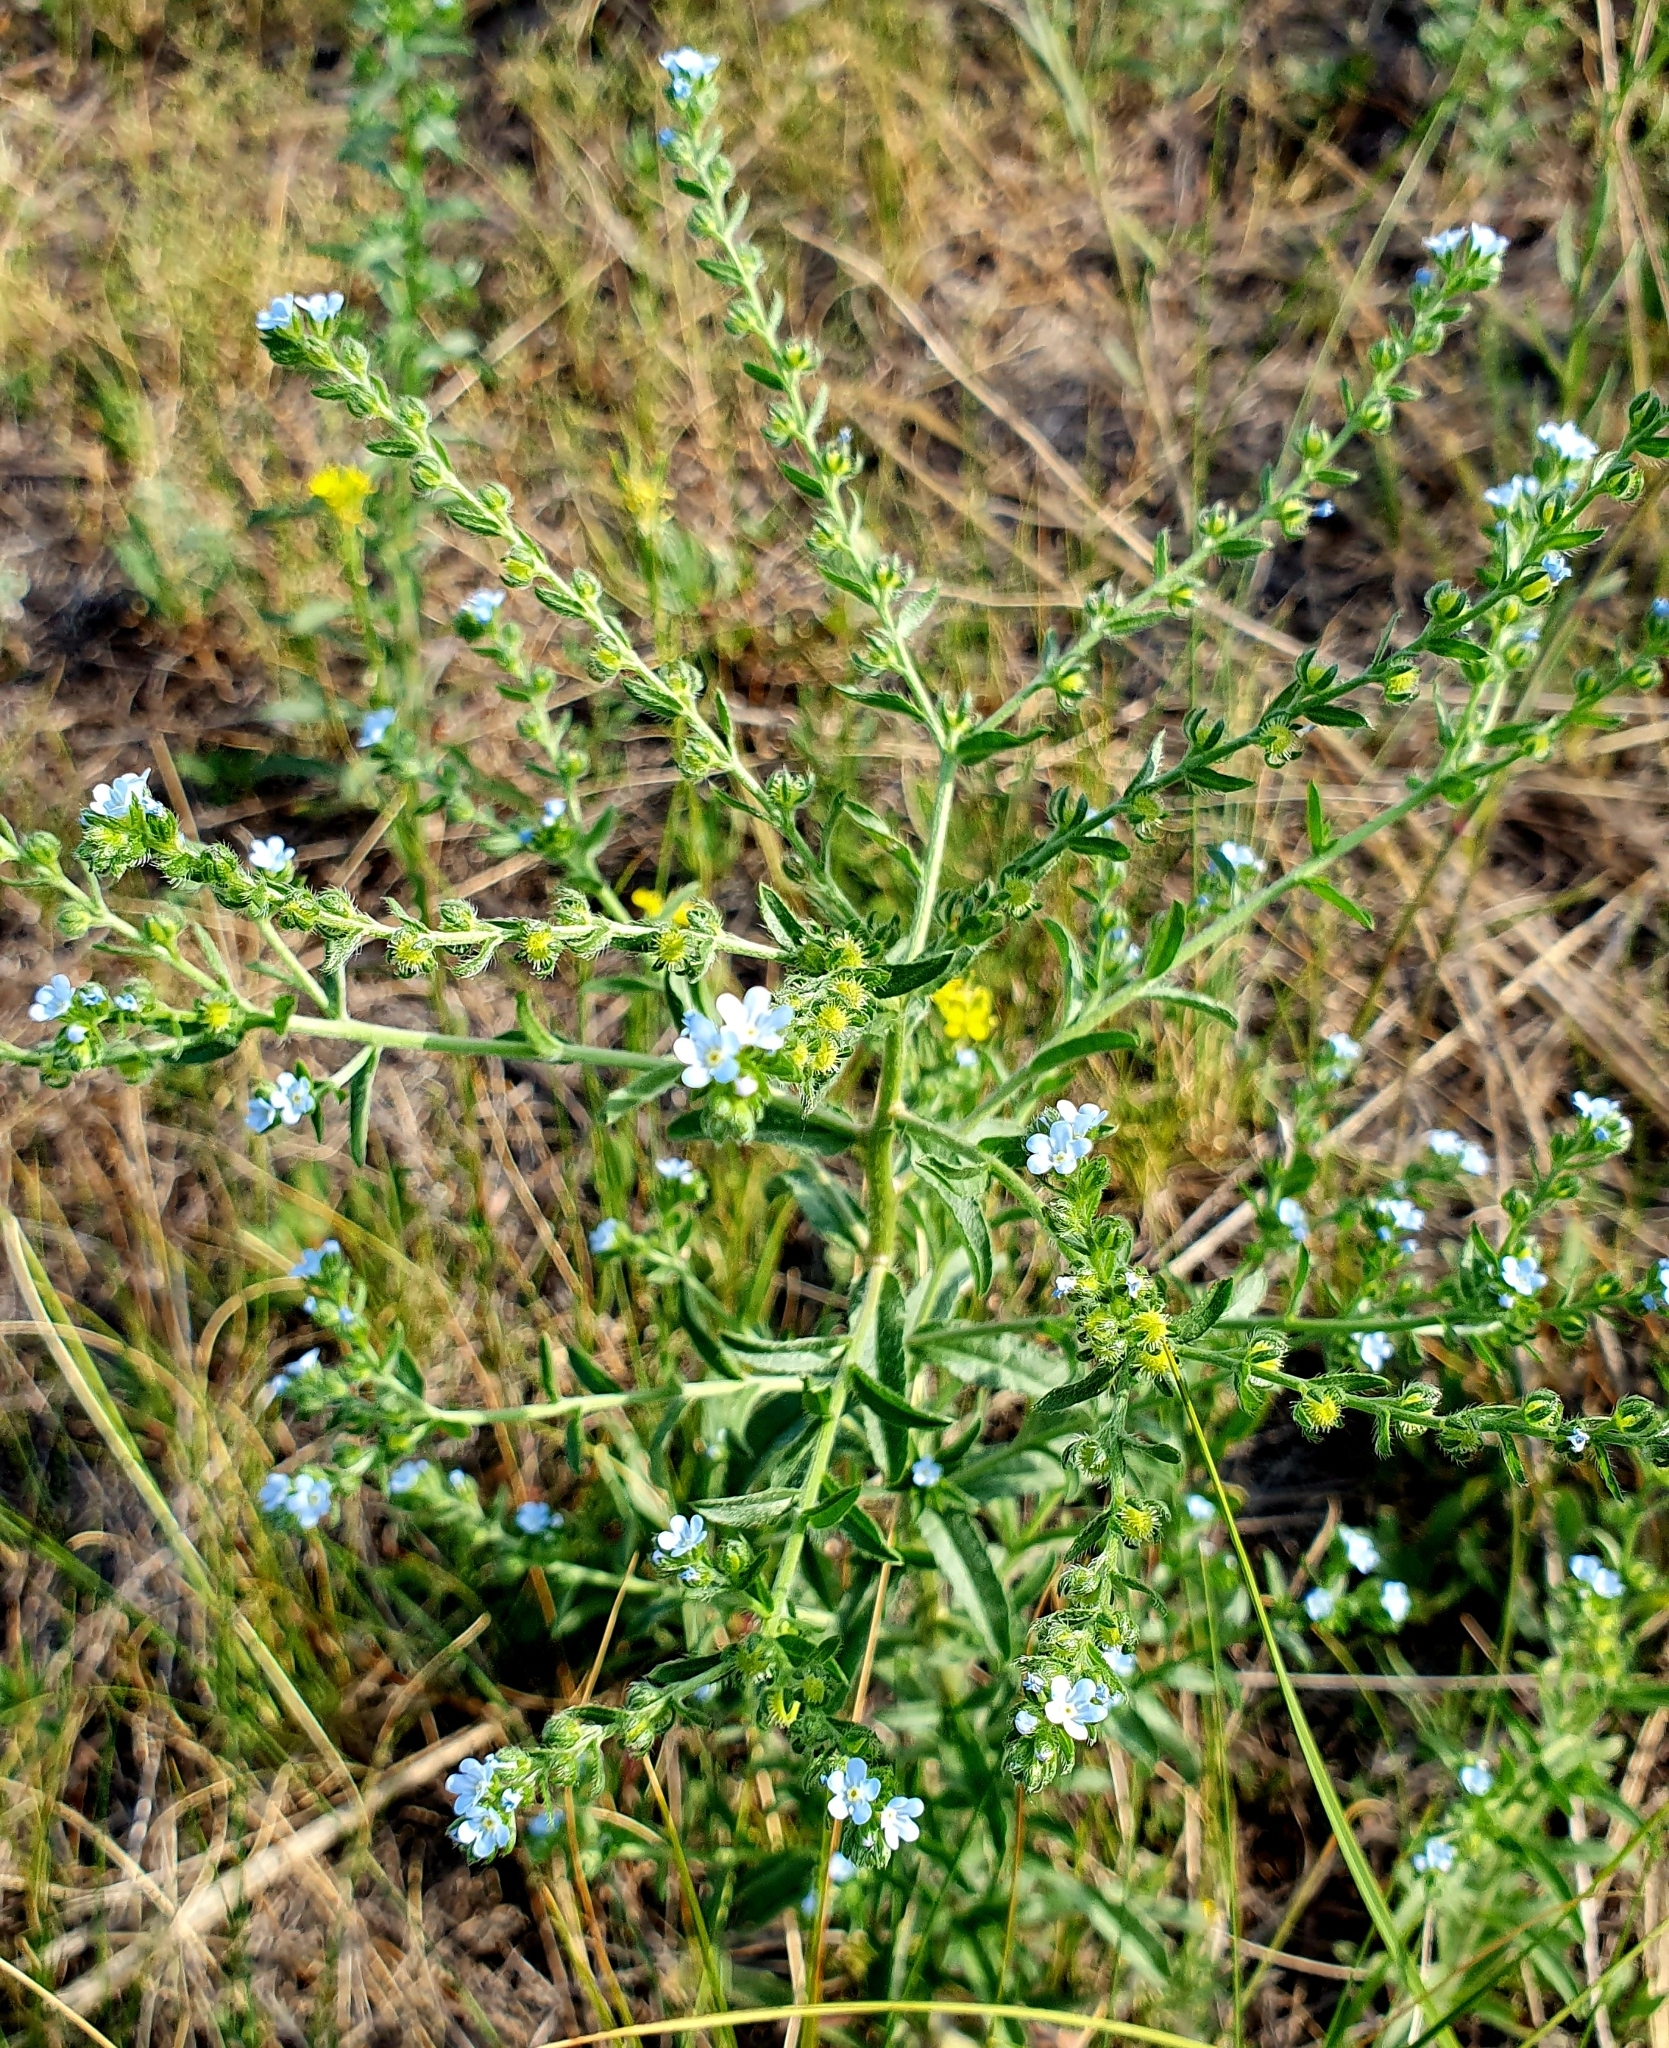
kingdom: Plantae
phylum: Tracheophyta
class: Magnoliopsida
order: Boraginales
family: Boraginaceae
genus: Lappula
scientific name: Lappula squarrosa
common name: European stickseed
